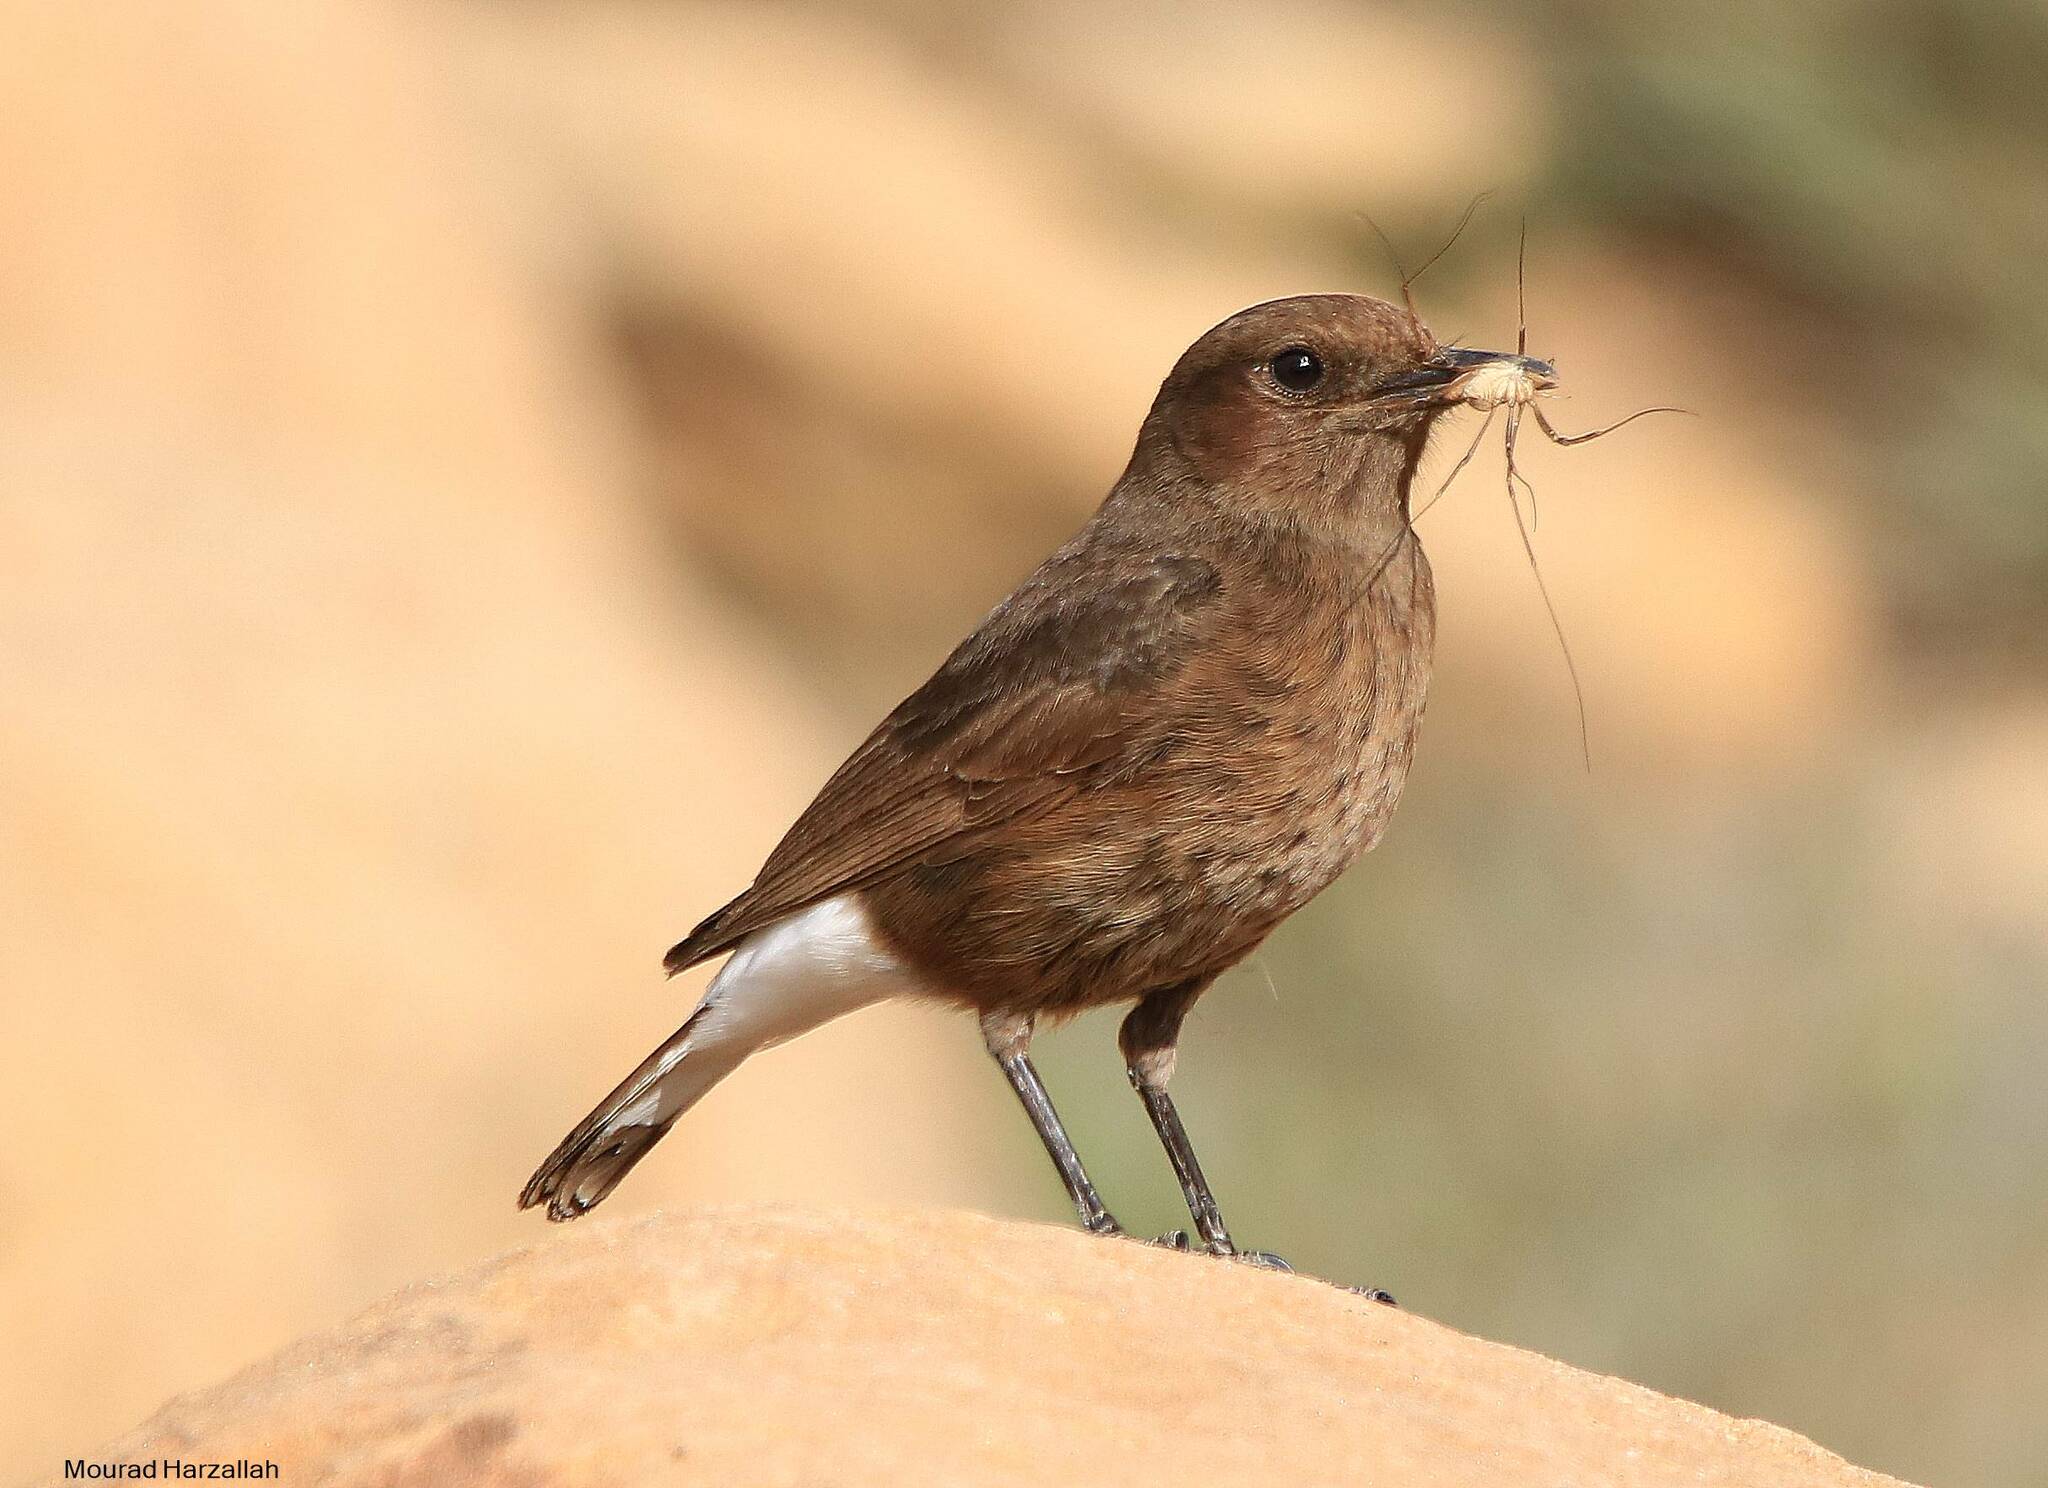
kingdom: Animalia
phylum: Chordata
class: Aves
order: Passeriformes
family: Muscicapidae
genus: Oenanthe
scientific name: Oenanthe leucura
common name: Black wheatear
